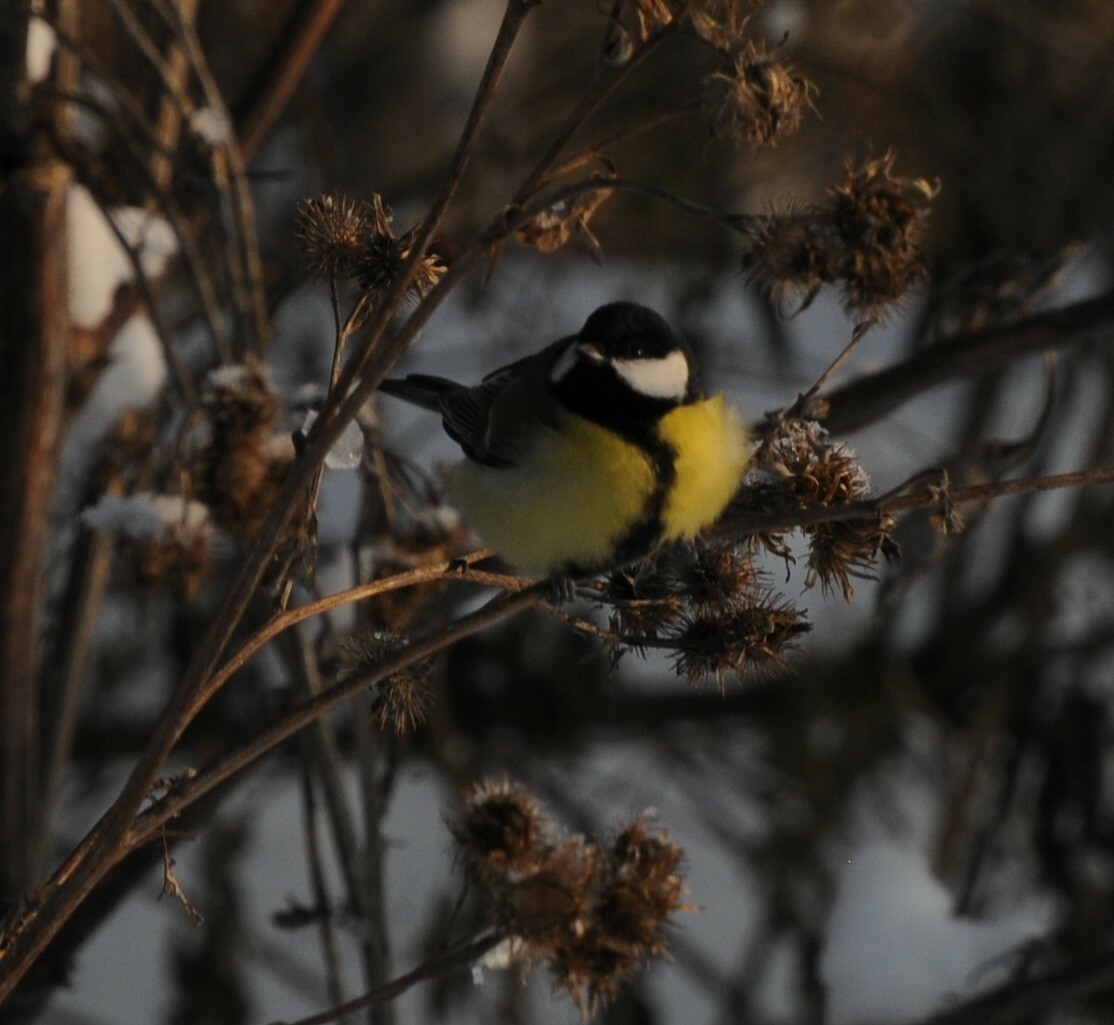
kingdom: Animalia
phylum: Chordata
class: Aves
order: Passeriformes
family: Paridae
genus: Parus
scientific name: Parus major
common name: Great tit
